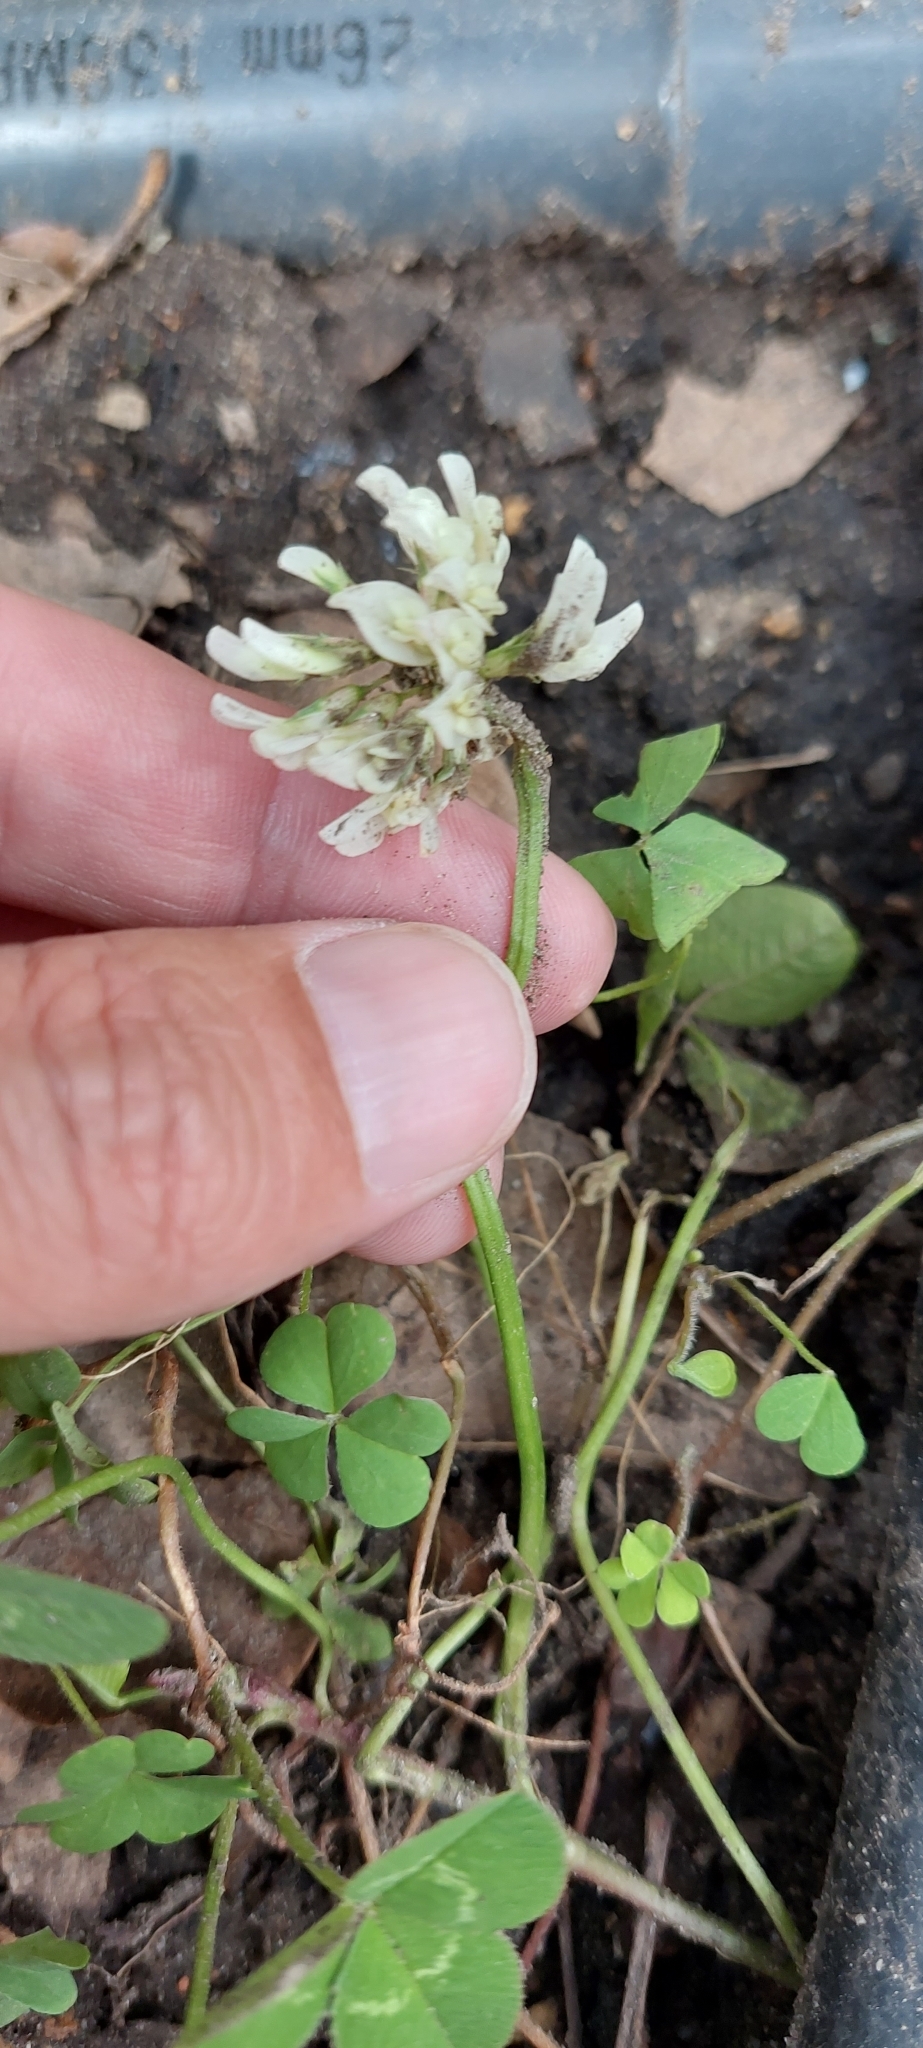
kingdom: Plantae
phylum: Tracheophyta
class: Magnoliopsida
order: Fabales
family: Fabaceae
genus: Trifolium
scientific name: Trifolium repens
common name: White clover
